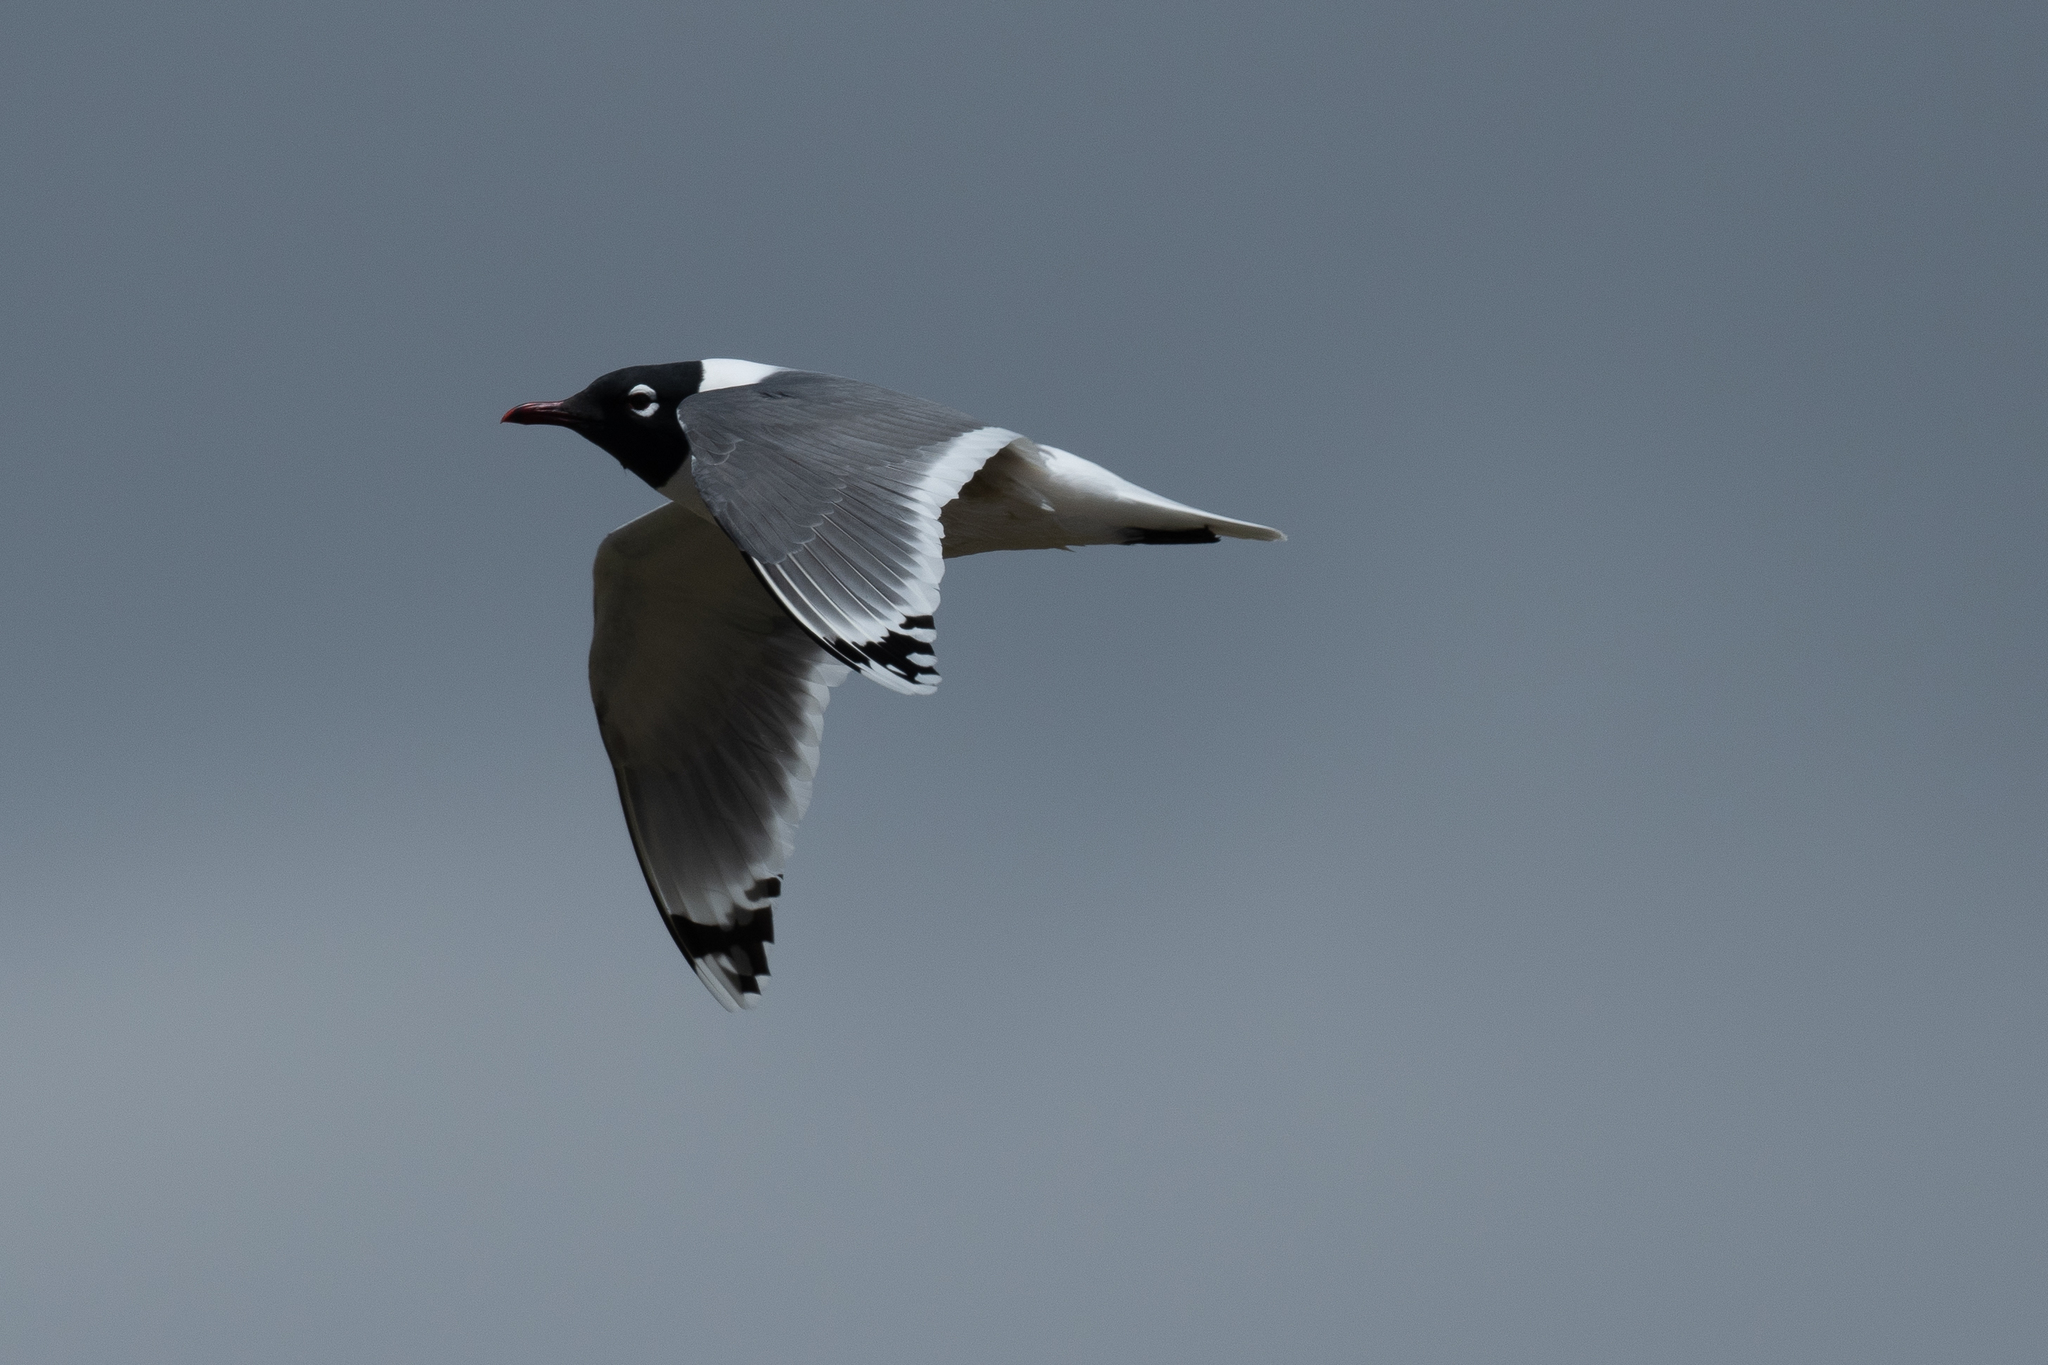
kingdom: Animalia
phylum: Chordata
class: Aves
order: Charadriiformes
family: Laridae
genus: Leucophaeus
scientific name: Leucophaeus pipixcan
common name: Franklin's gull
